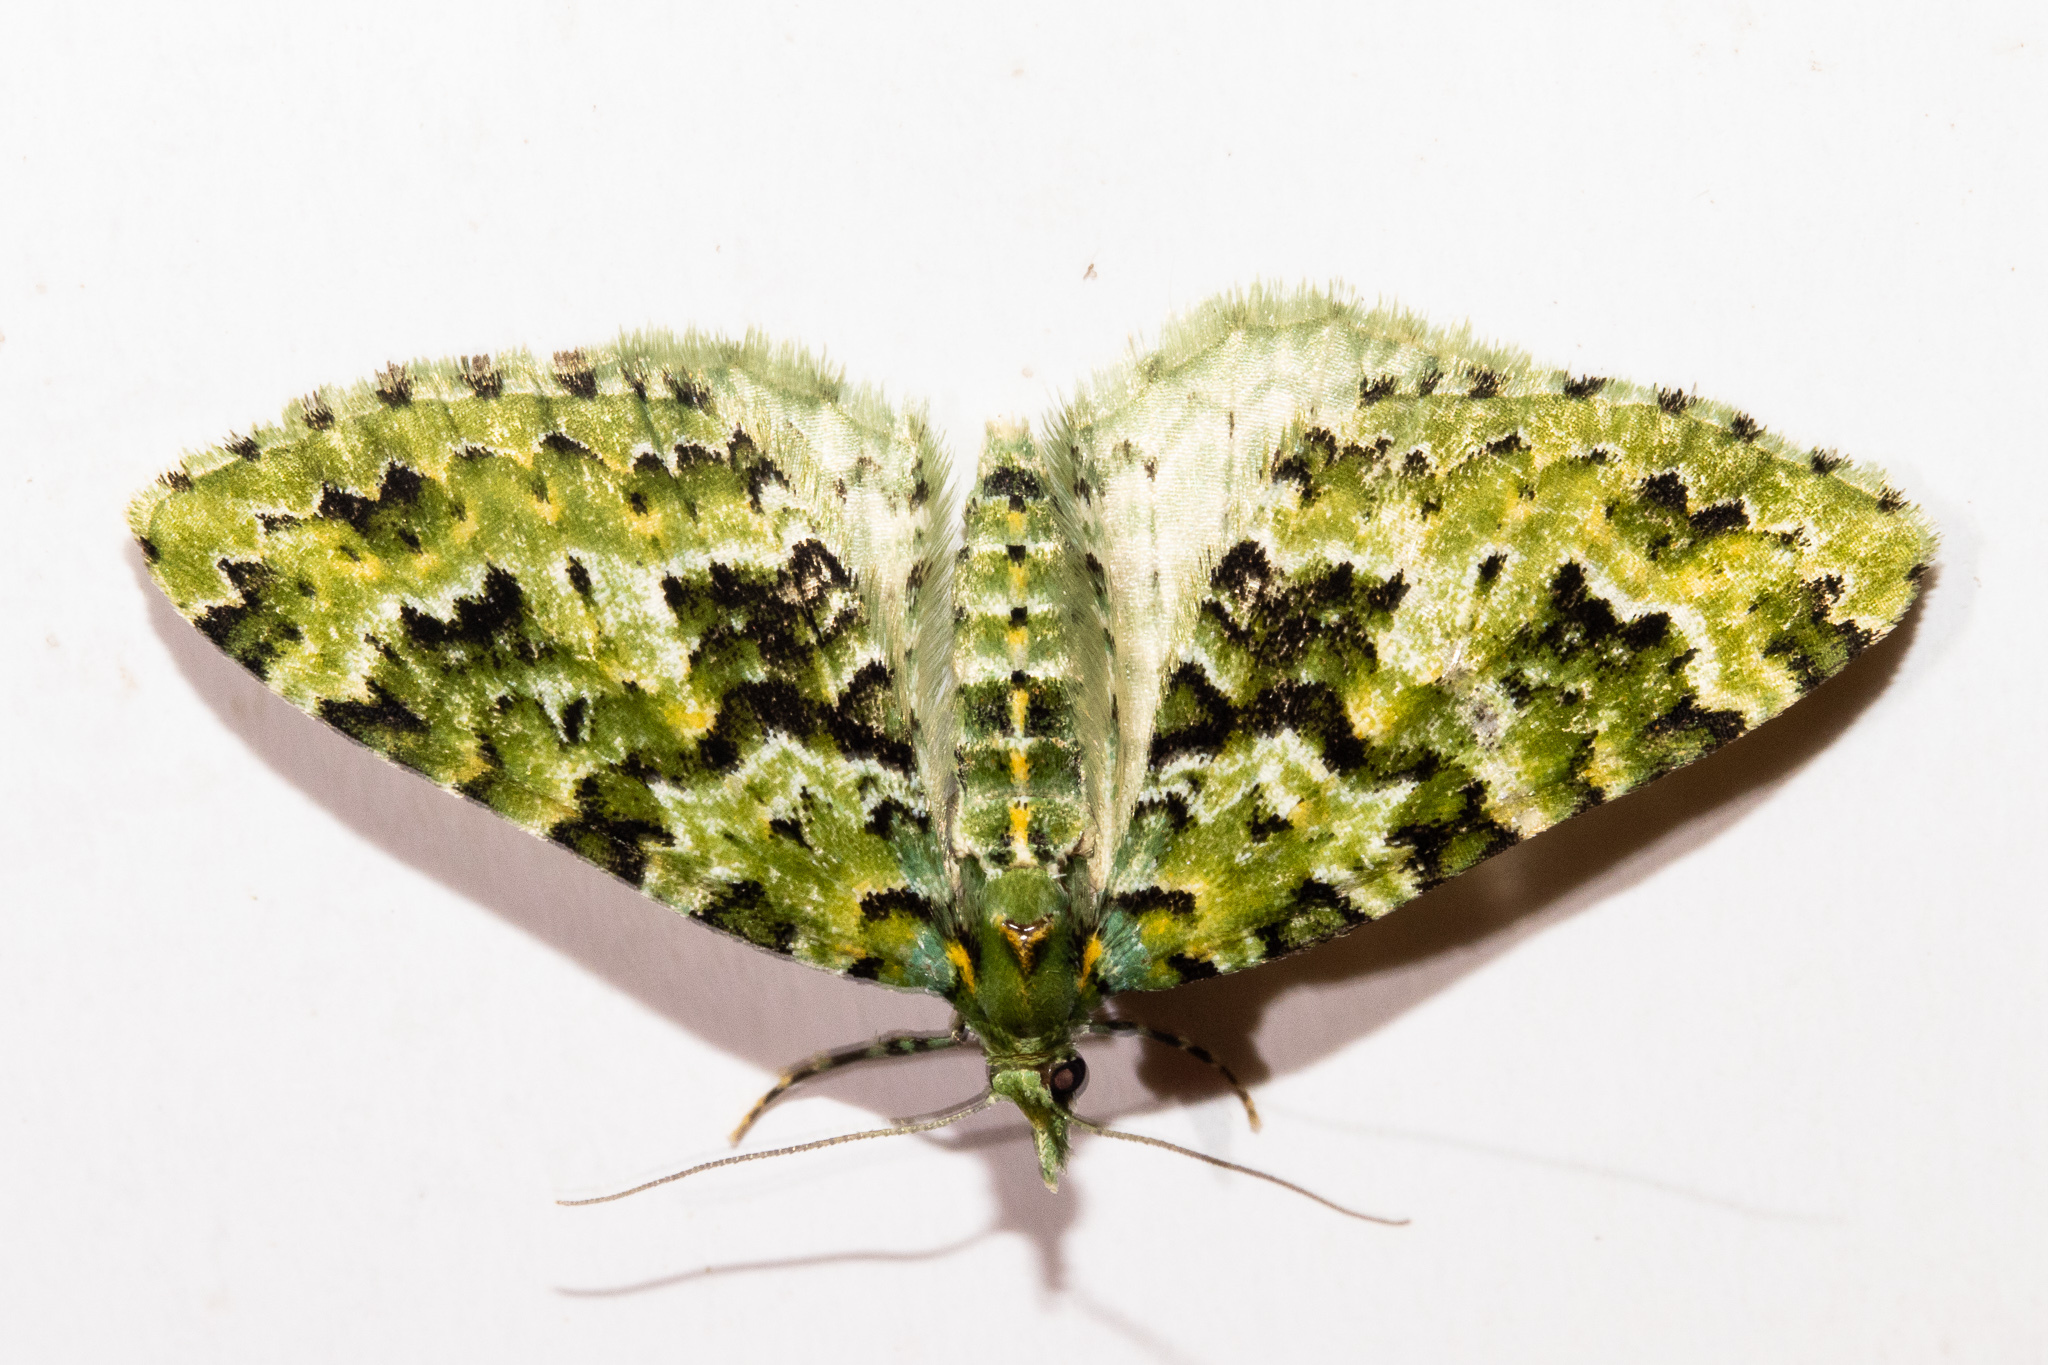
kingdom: Animalia
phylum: Arthropoda
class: Insecta
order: Lepidoptera
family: Geometridae
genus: Pasiphila
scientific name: Pasiphila melochlora
